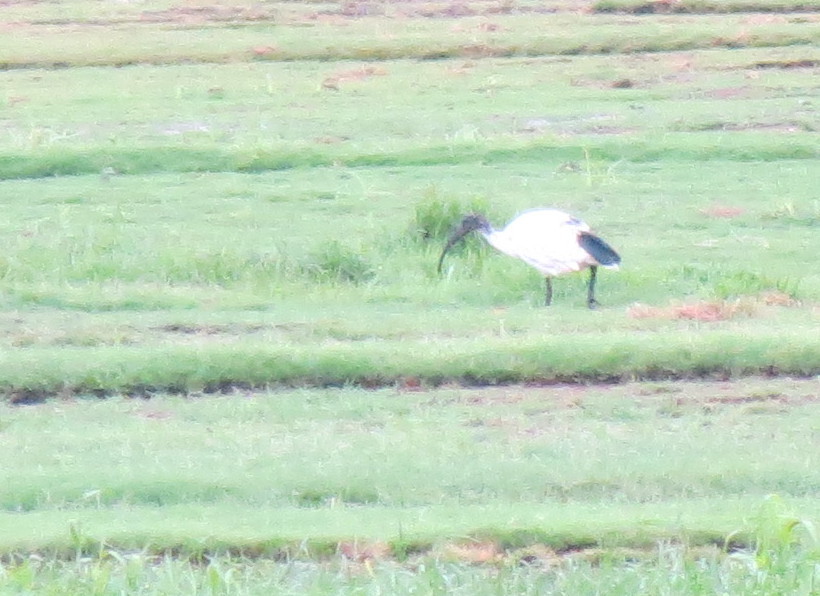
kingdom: Animalia
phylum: Chordata
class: Aves
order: Pelecaniformes
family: Threskiornithidae
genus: Threskiornis
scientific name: Threskiornis aethiopicus
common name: Sacred ibis
